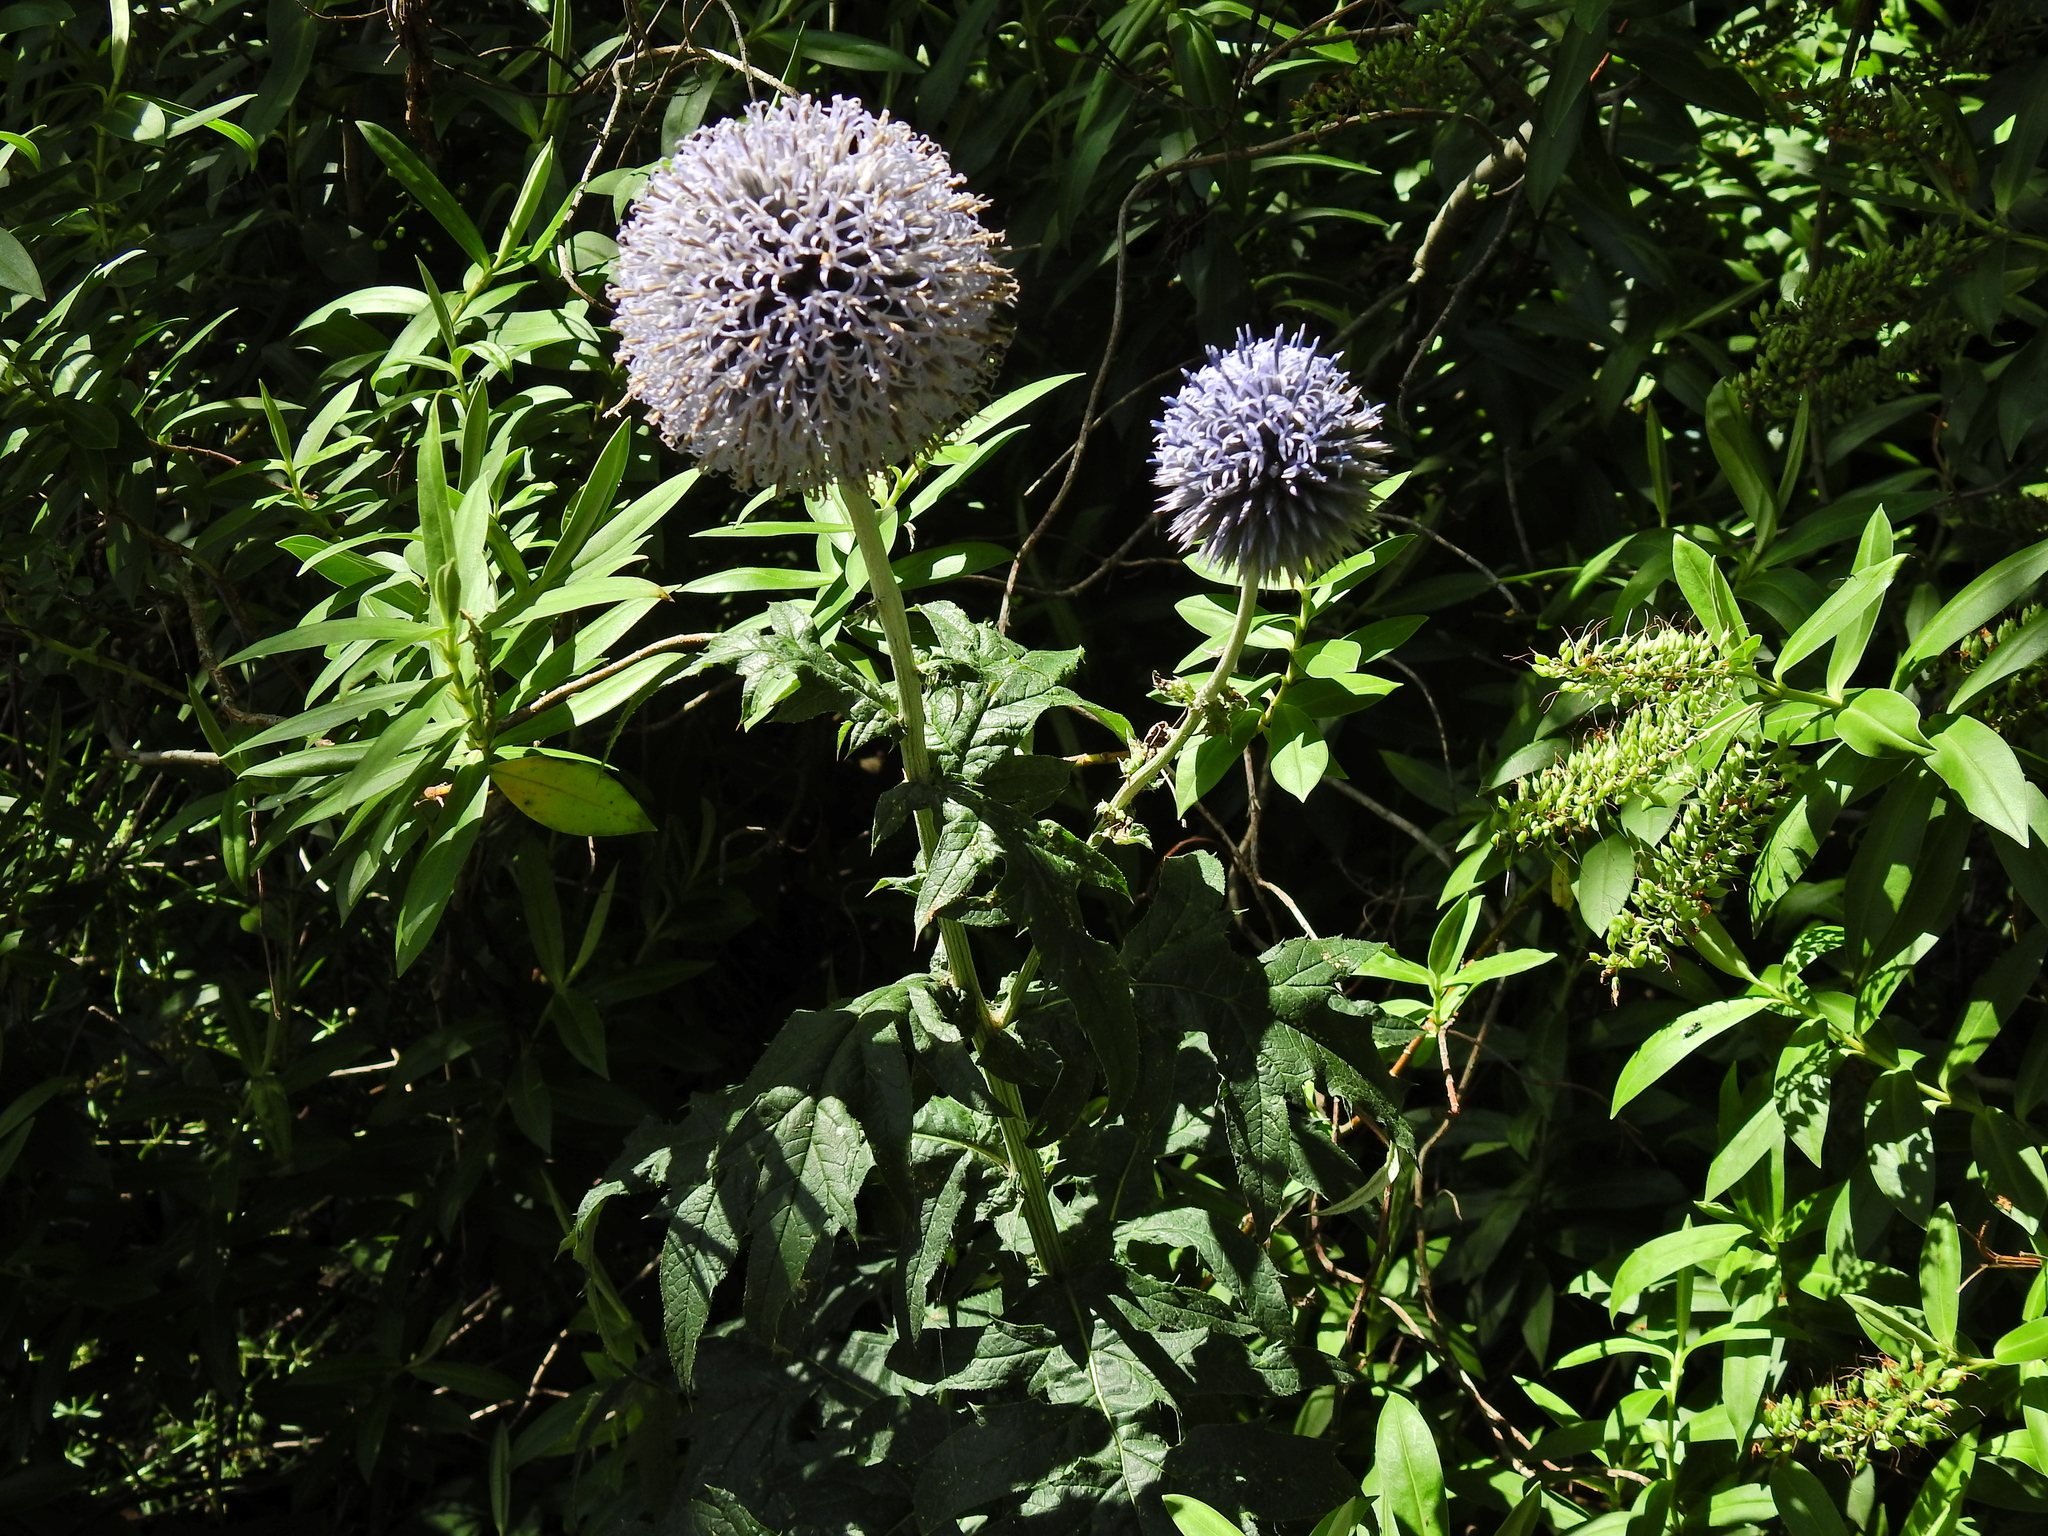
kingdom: Plantae
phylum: Tracheophyta
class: Magnoliopsida
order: Asterales
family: Asteraceae
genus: Echinops
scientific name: Echinops bannaticus
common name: Blue globe-thistle
